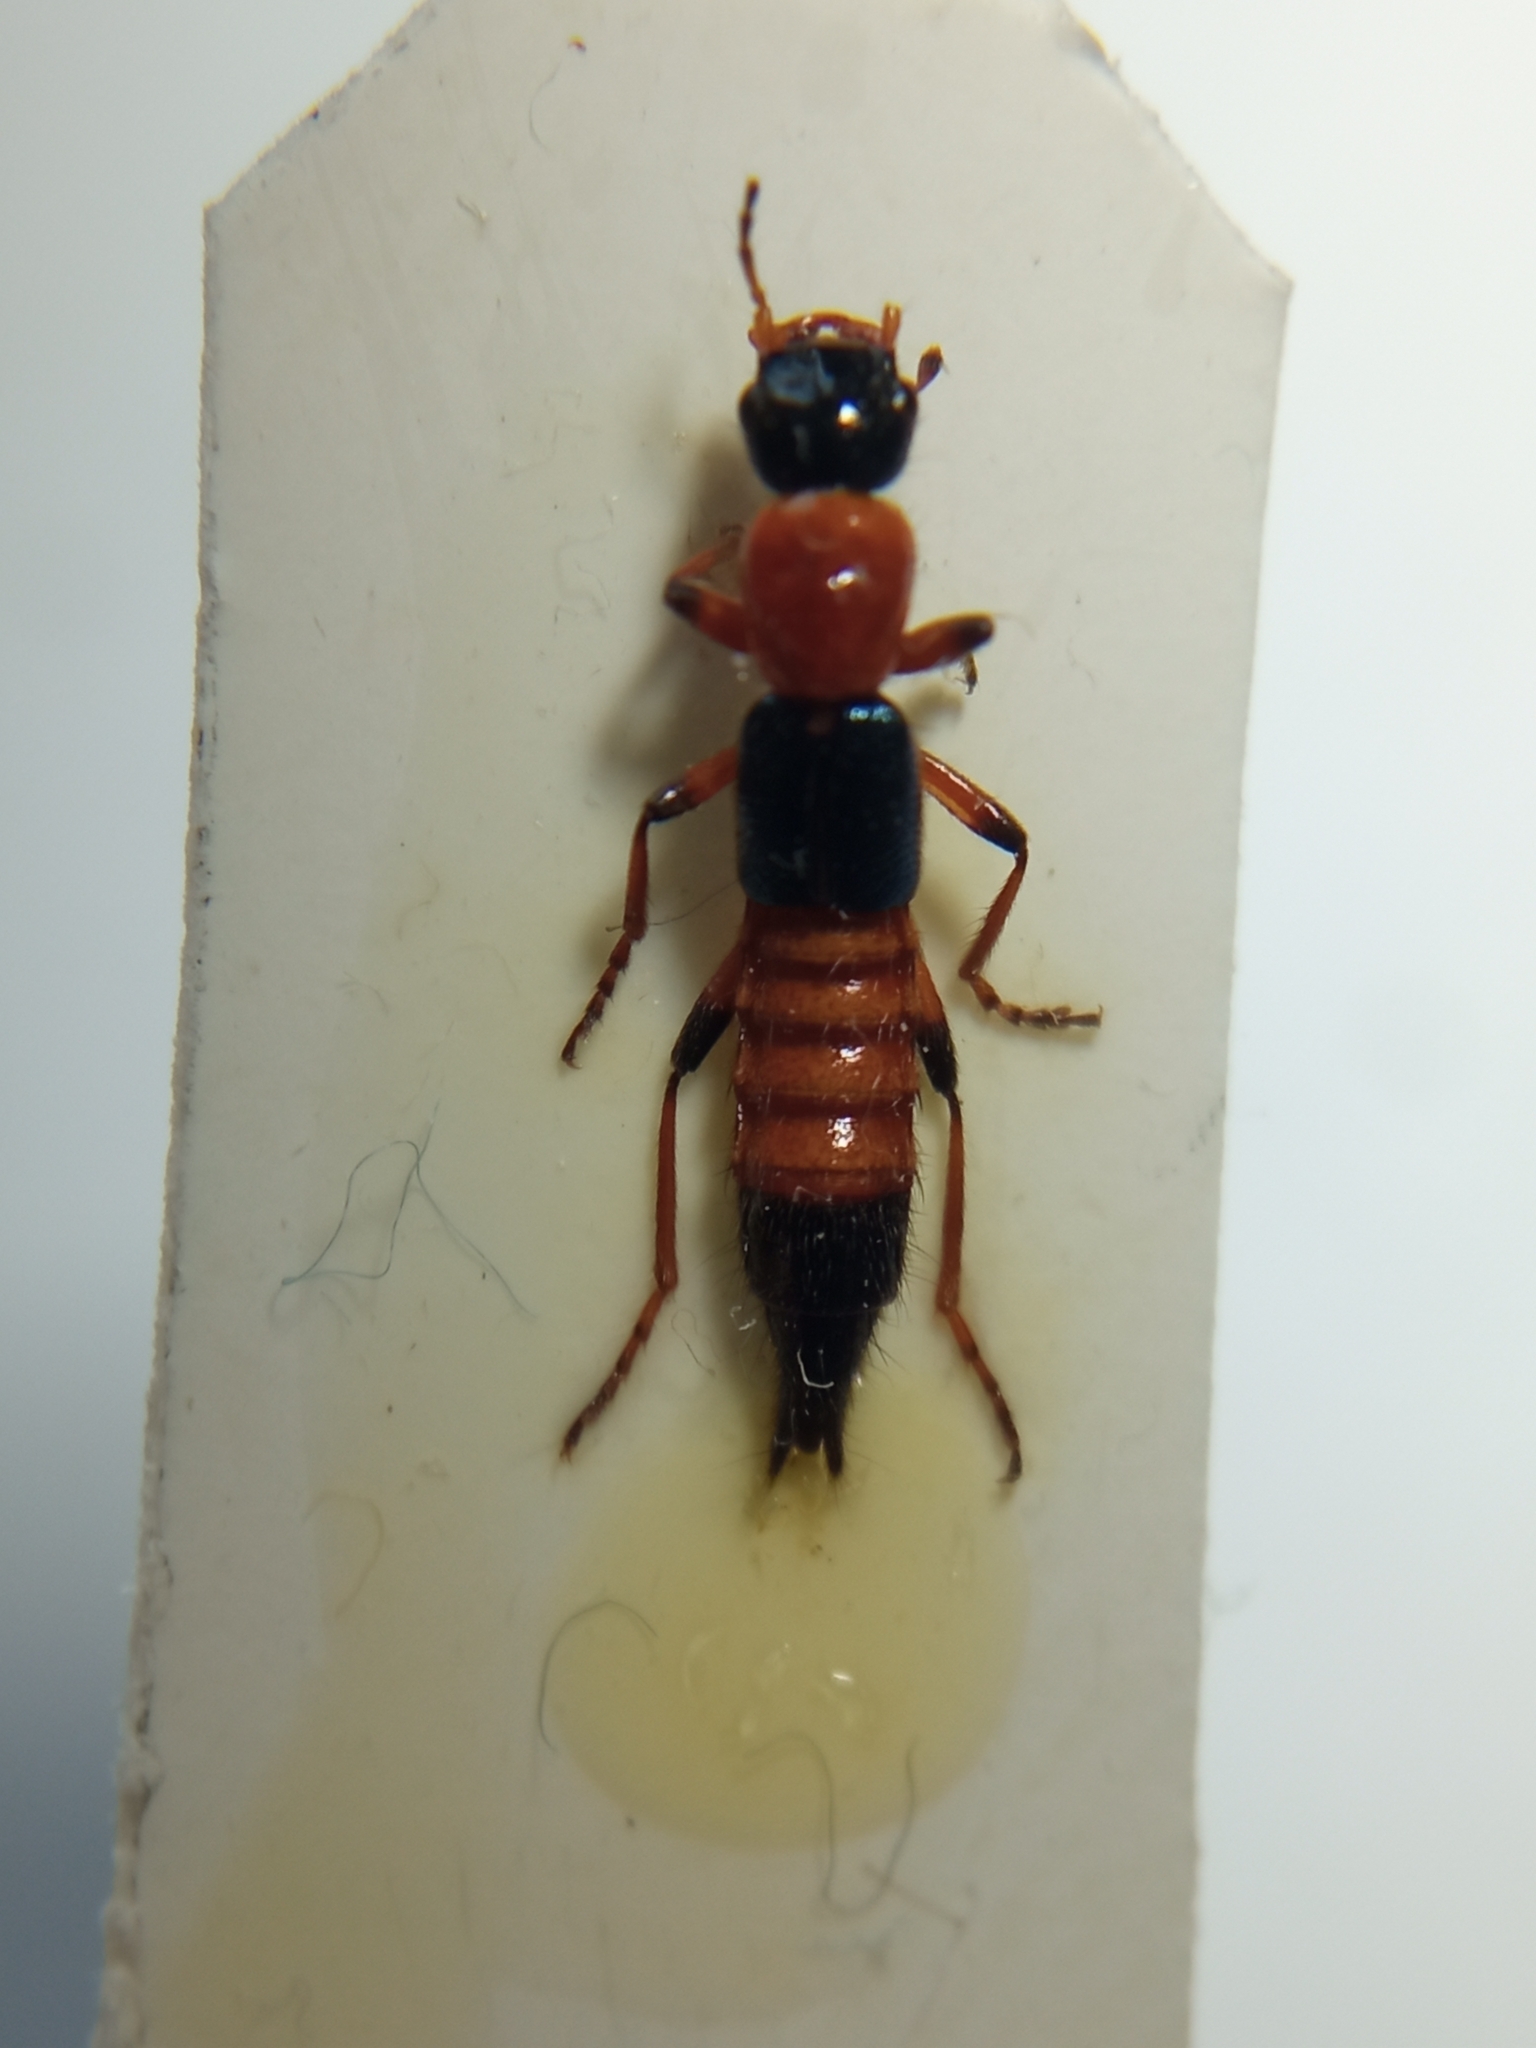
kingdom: Animalia
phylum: Arthropoda
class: Insecta
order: Coleoptera
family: Staphylinidae
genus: Paederus
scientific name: Paederus riparius
